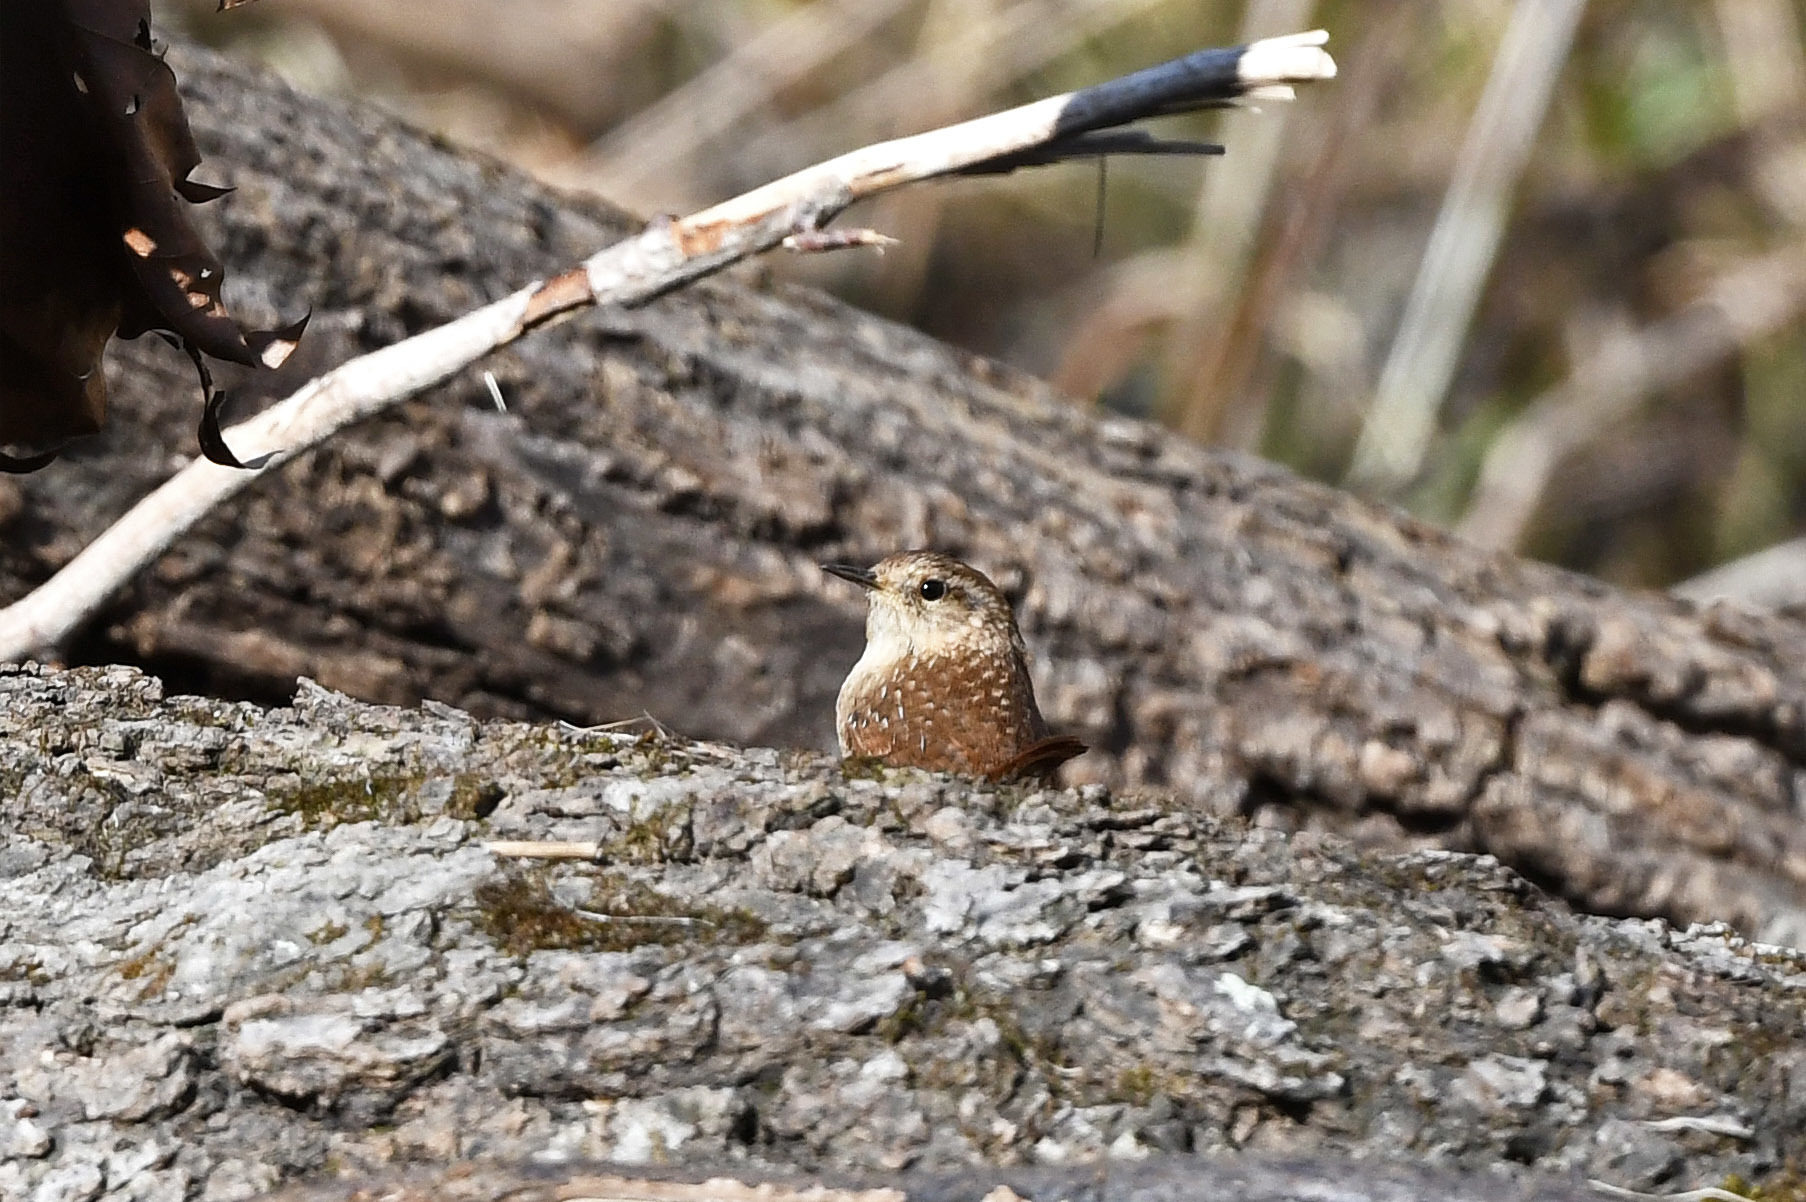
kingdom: Animalia
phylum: Chordata
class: Aves
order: Passeriformes
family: Troglodytidae
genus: Troglodytes
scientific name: Troglodytes hiemalis
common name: Winter wren
